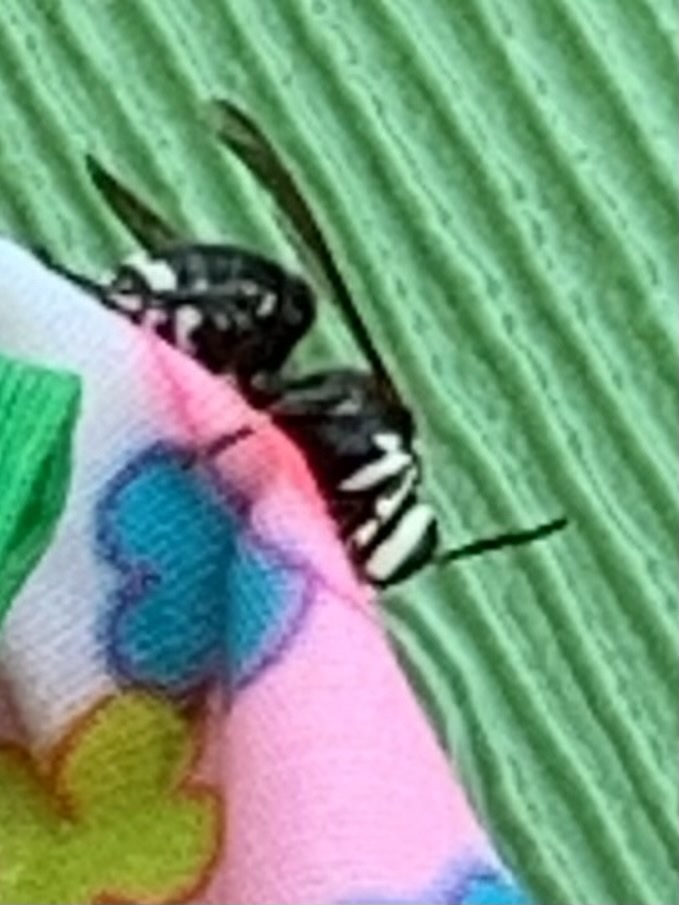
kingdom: Animalia
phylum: Arthropoda
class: Insecta
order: Hymenoptera
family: Vespidae
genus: Dolichovespula
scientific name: Dolichovespula maculata
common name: Bald-faced hornet
